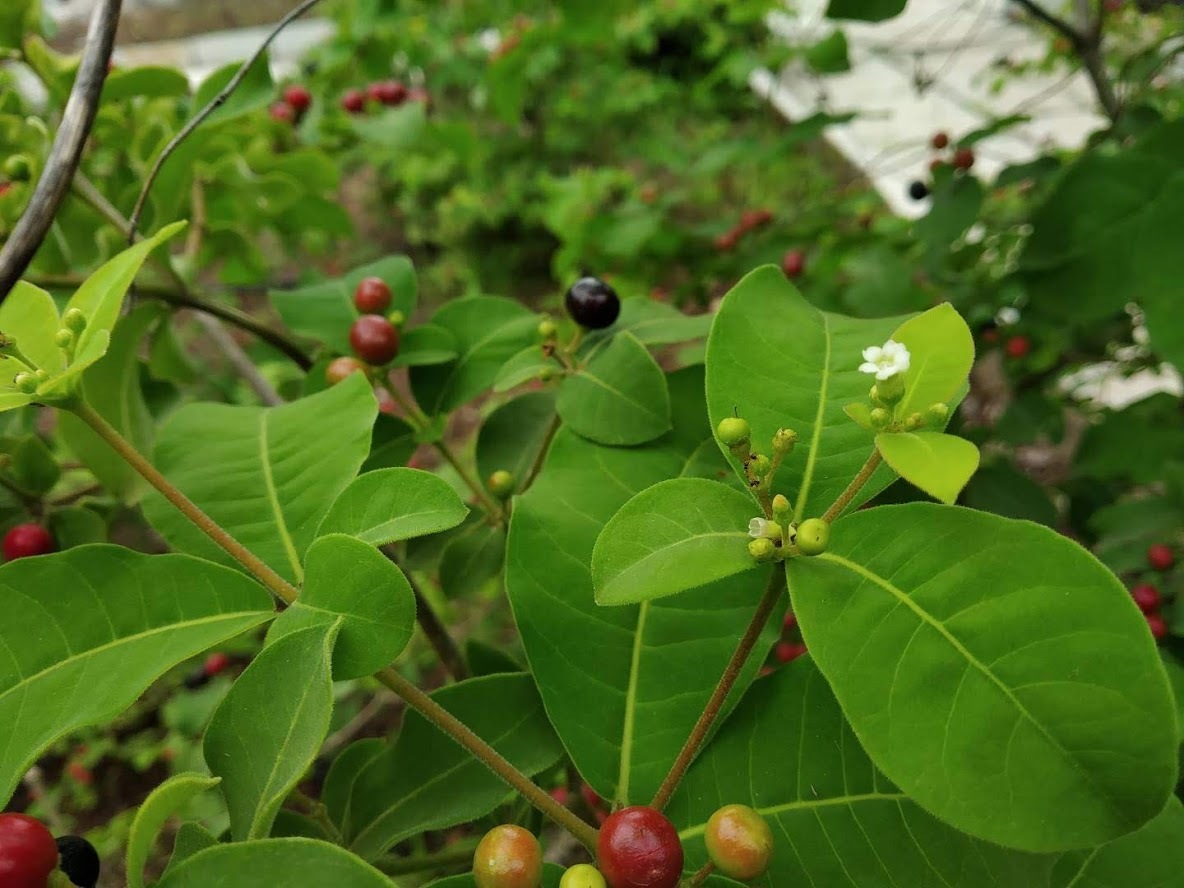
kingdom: Plantae
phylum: Tracheophyta
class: Magnoliopsida
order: Gentianales
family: Apocynaceae
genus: Rauvolfia
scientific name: Rauvolfia tetraphylla
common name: Four-leaf devil-pepper
